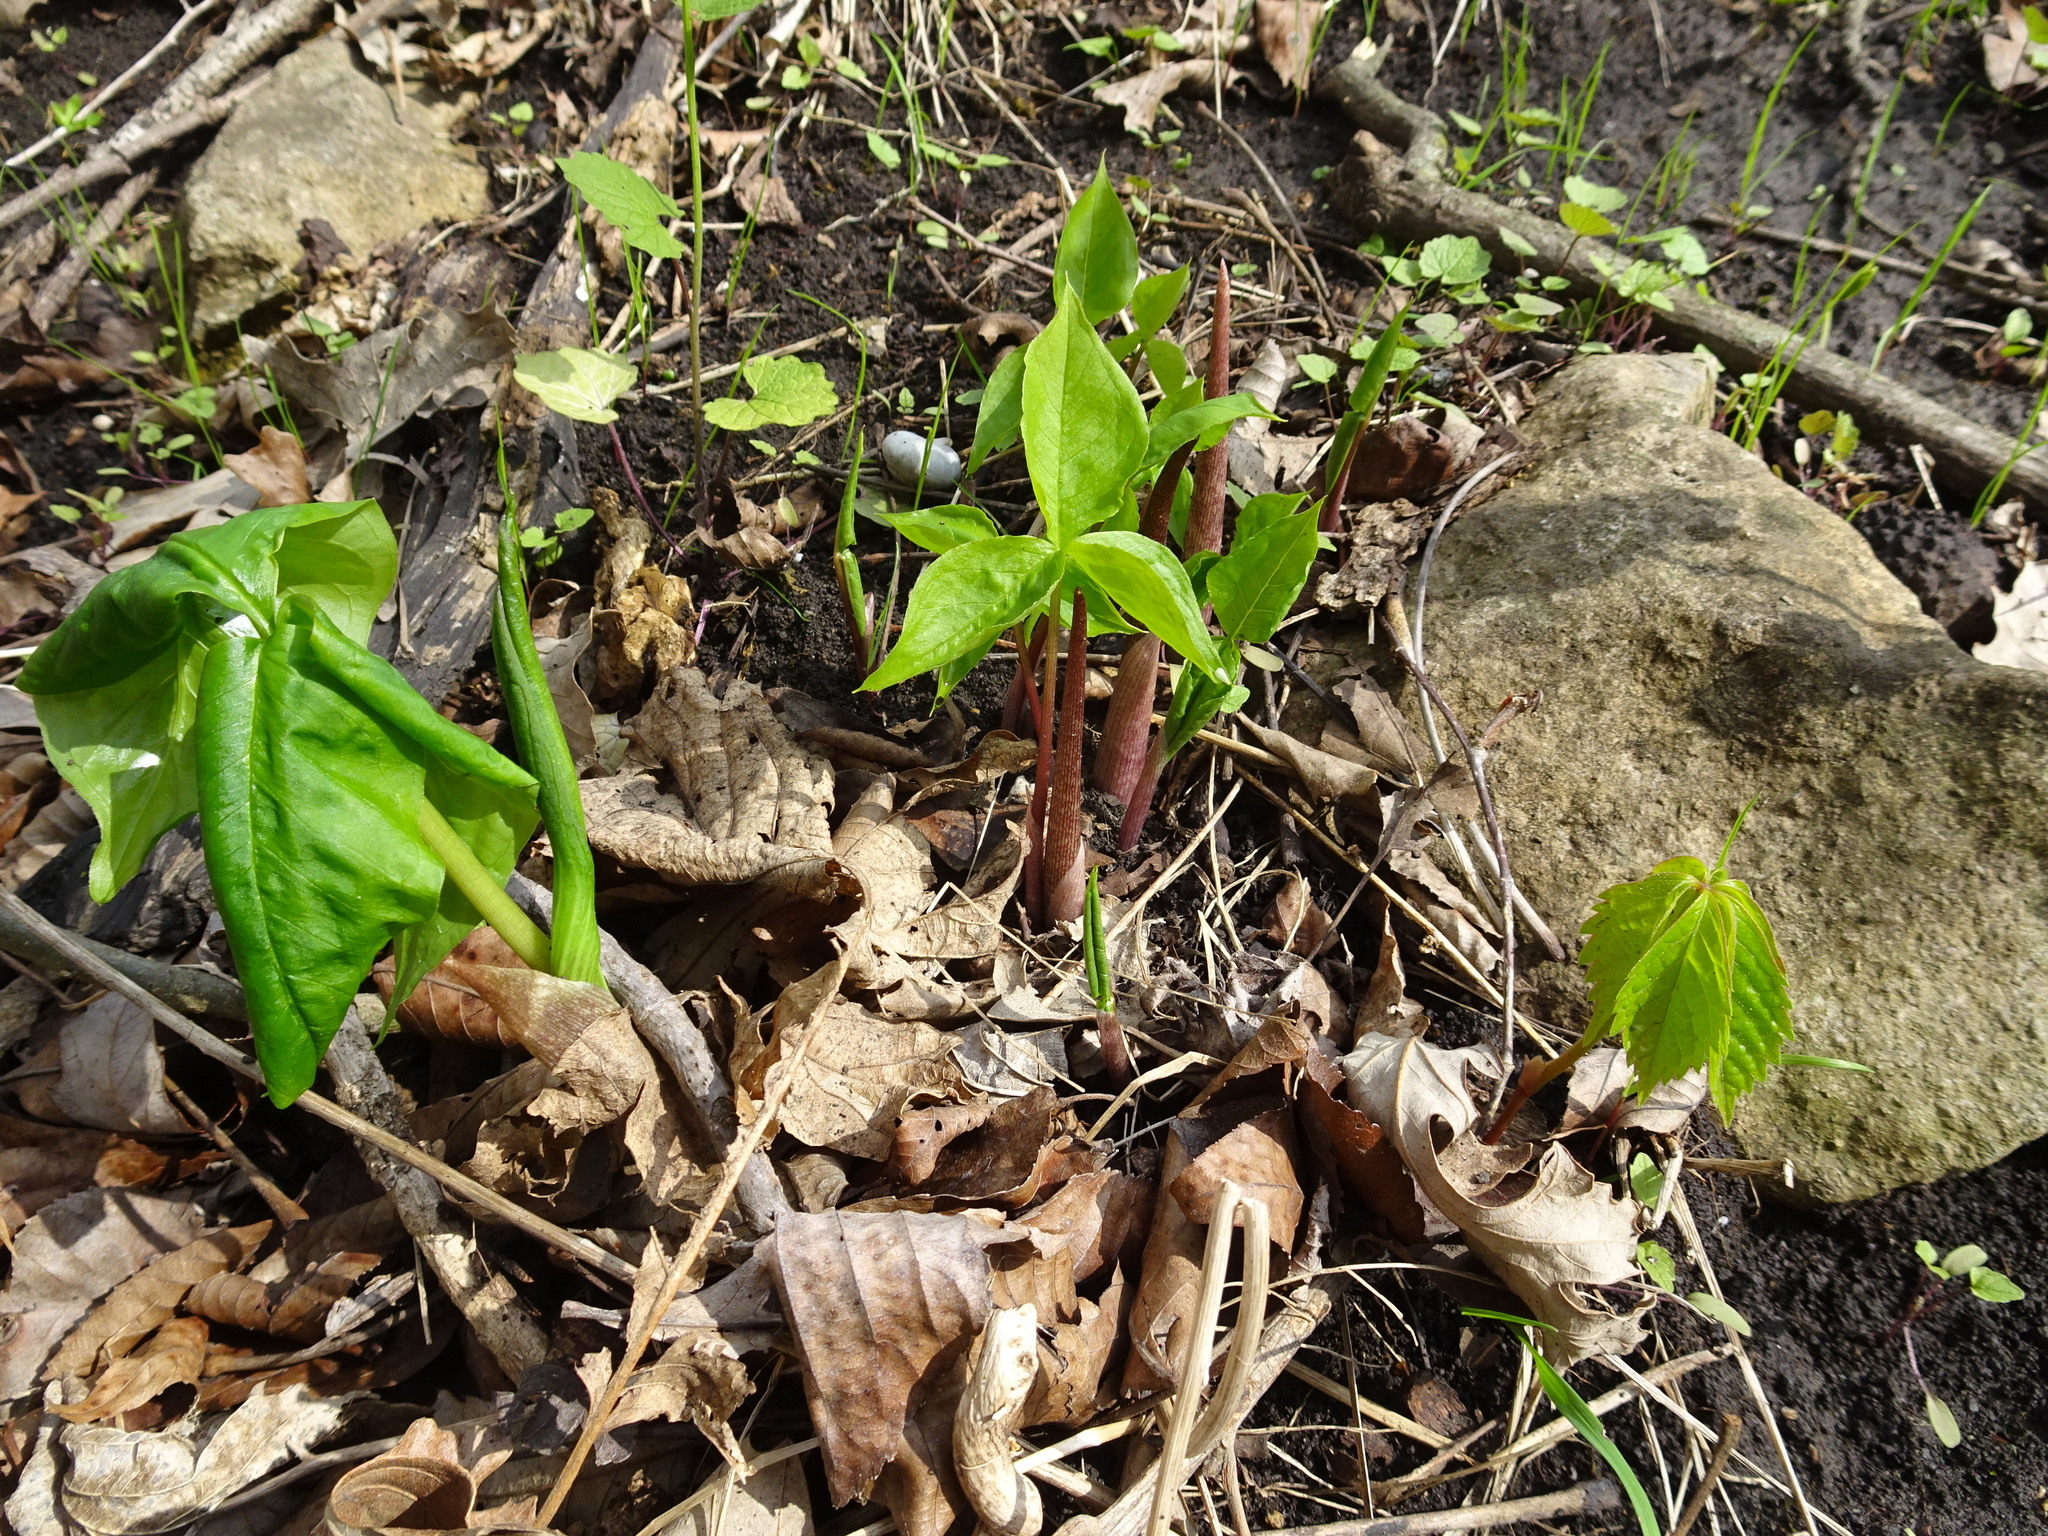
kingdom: Plantae
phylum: Tracheophyta
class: Liliopsida
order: Alismatales
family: Araceae
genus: Arisaema
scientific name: Arisaema triphyllum
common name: Jack-in-the-pulpit
